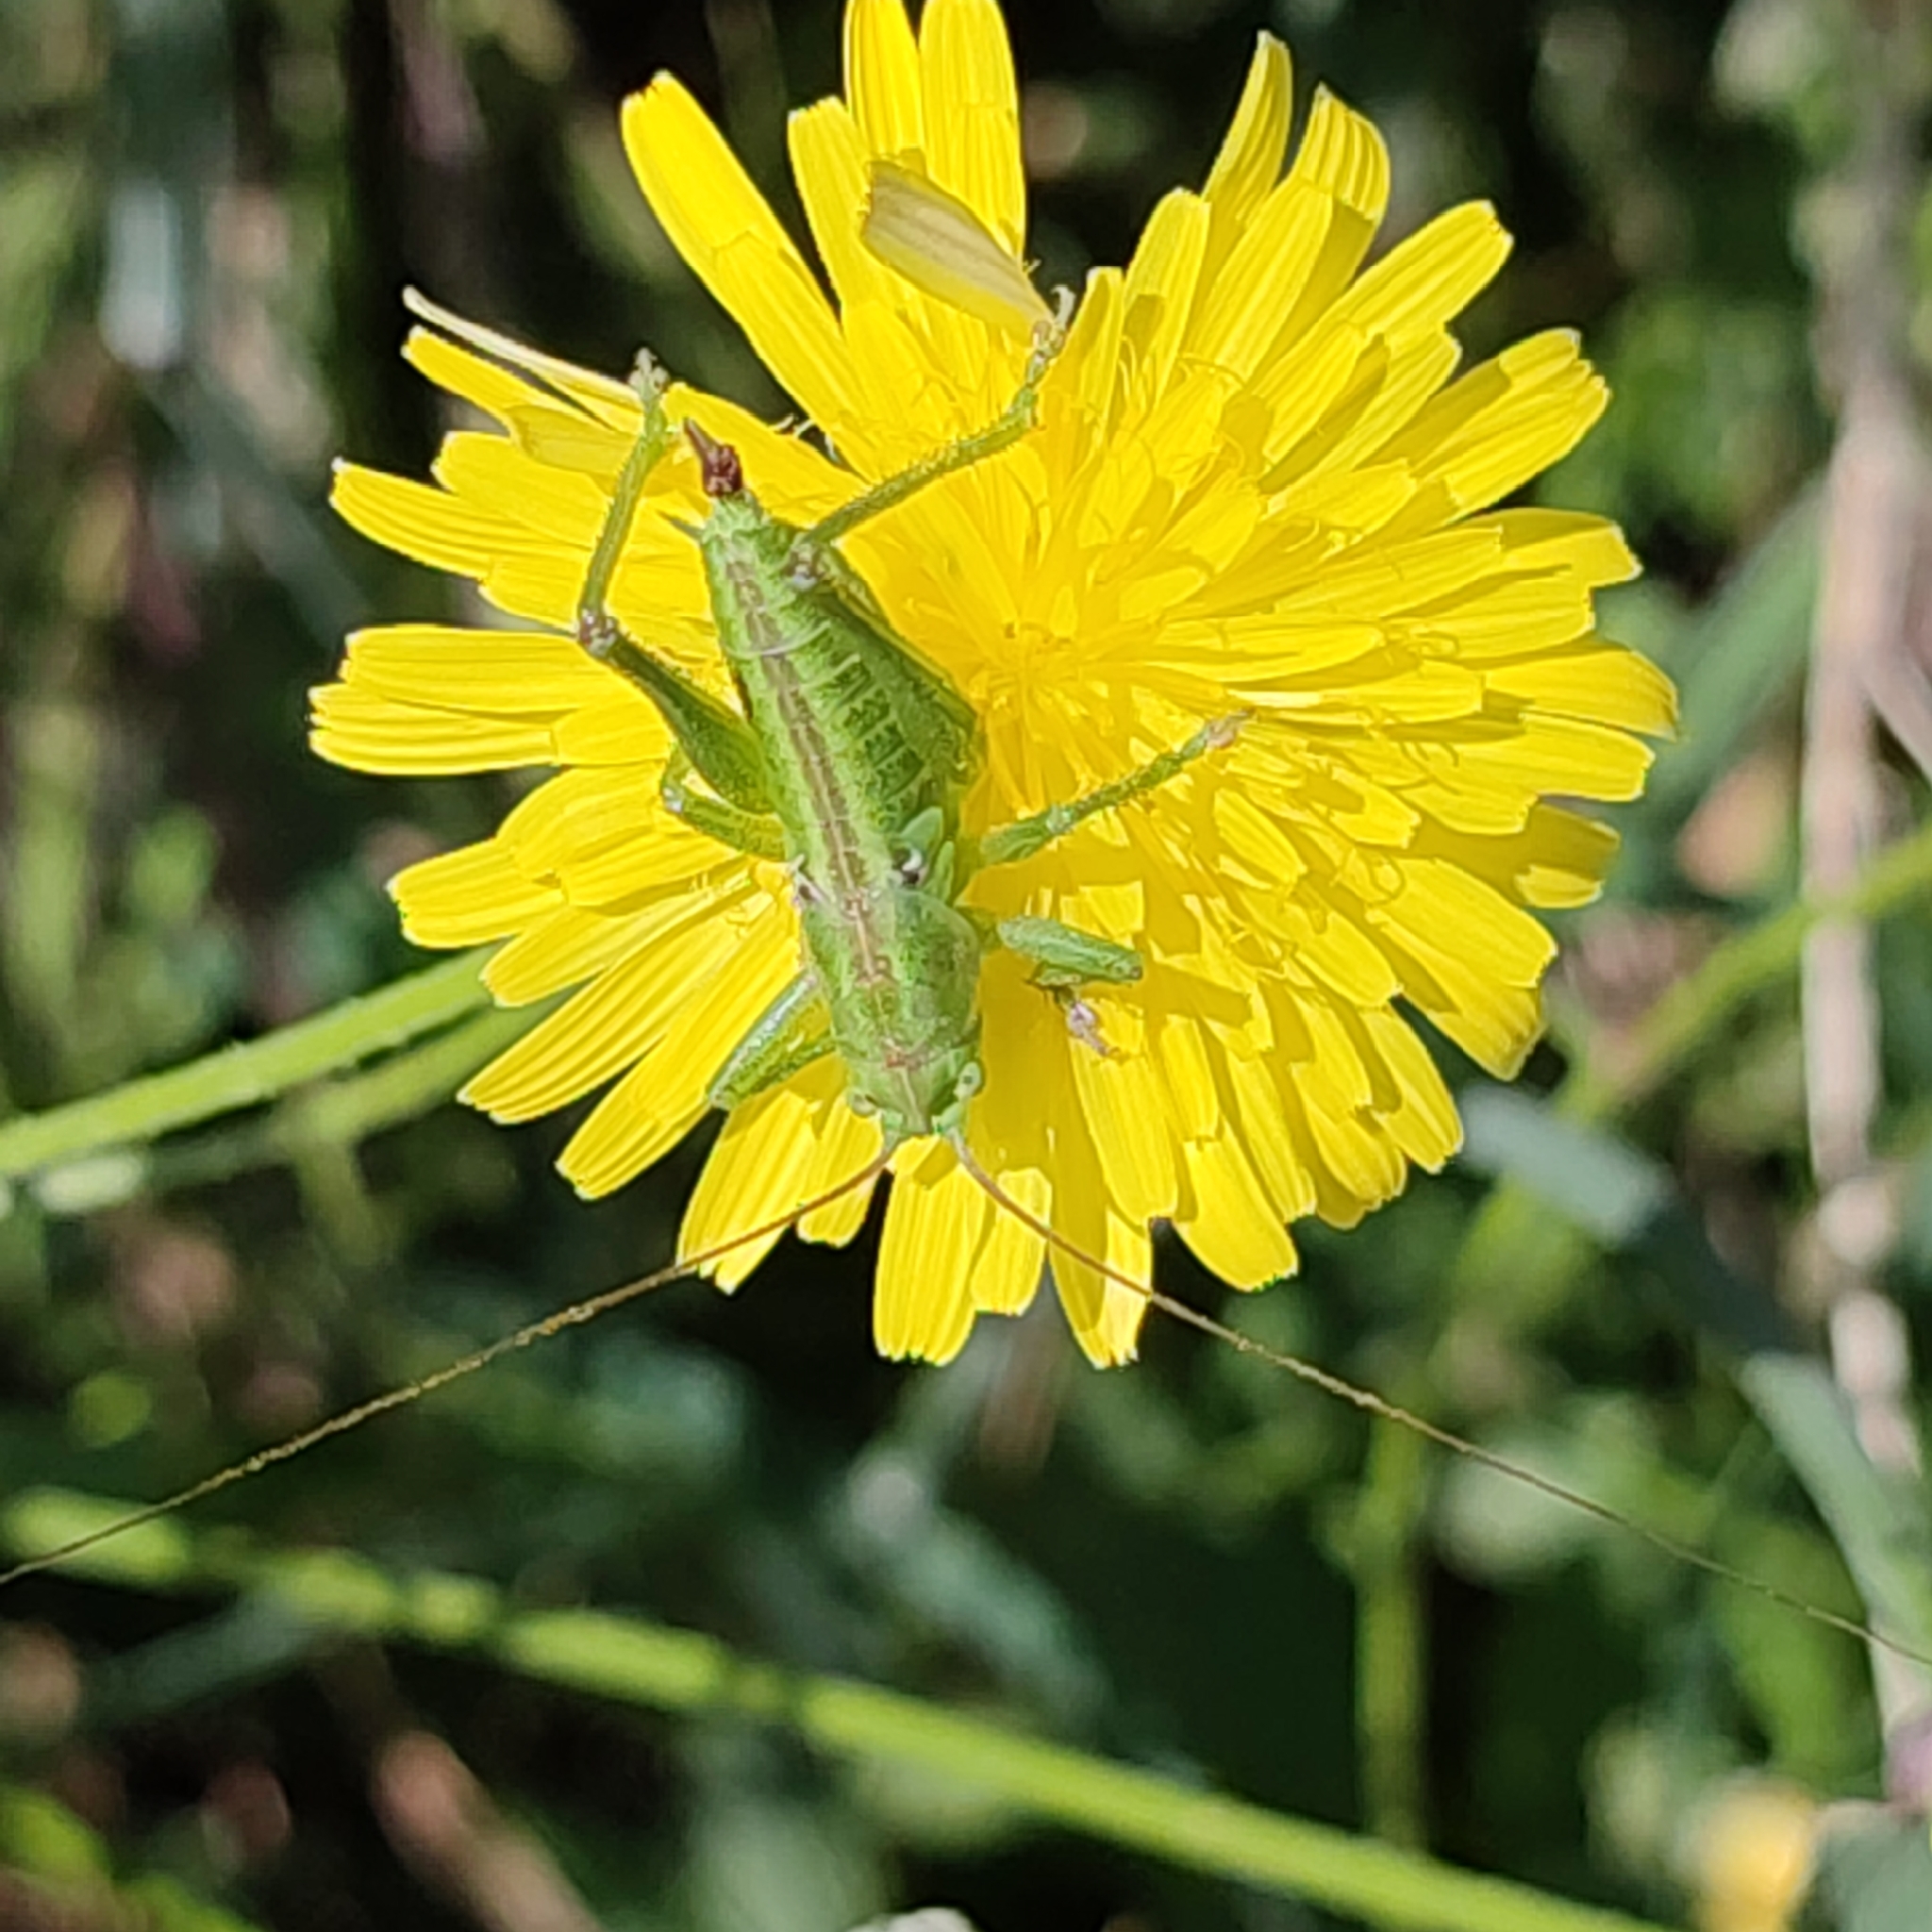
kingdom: Animalia
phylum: Arthropoda
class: Insecta
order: Orthoptera
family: Tettigoniidae
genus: Tettigonia
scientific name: Tettigonia
